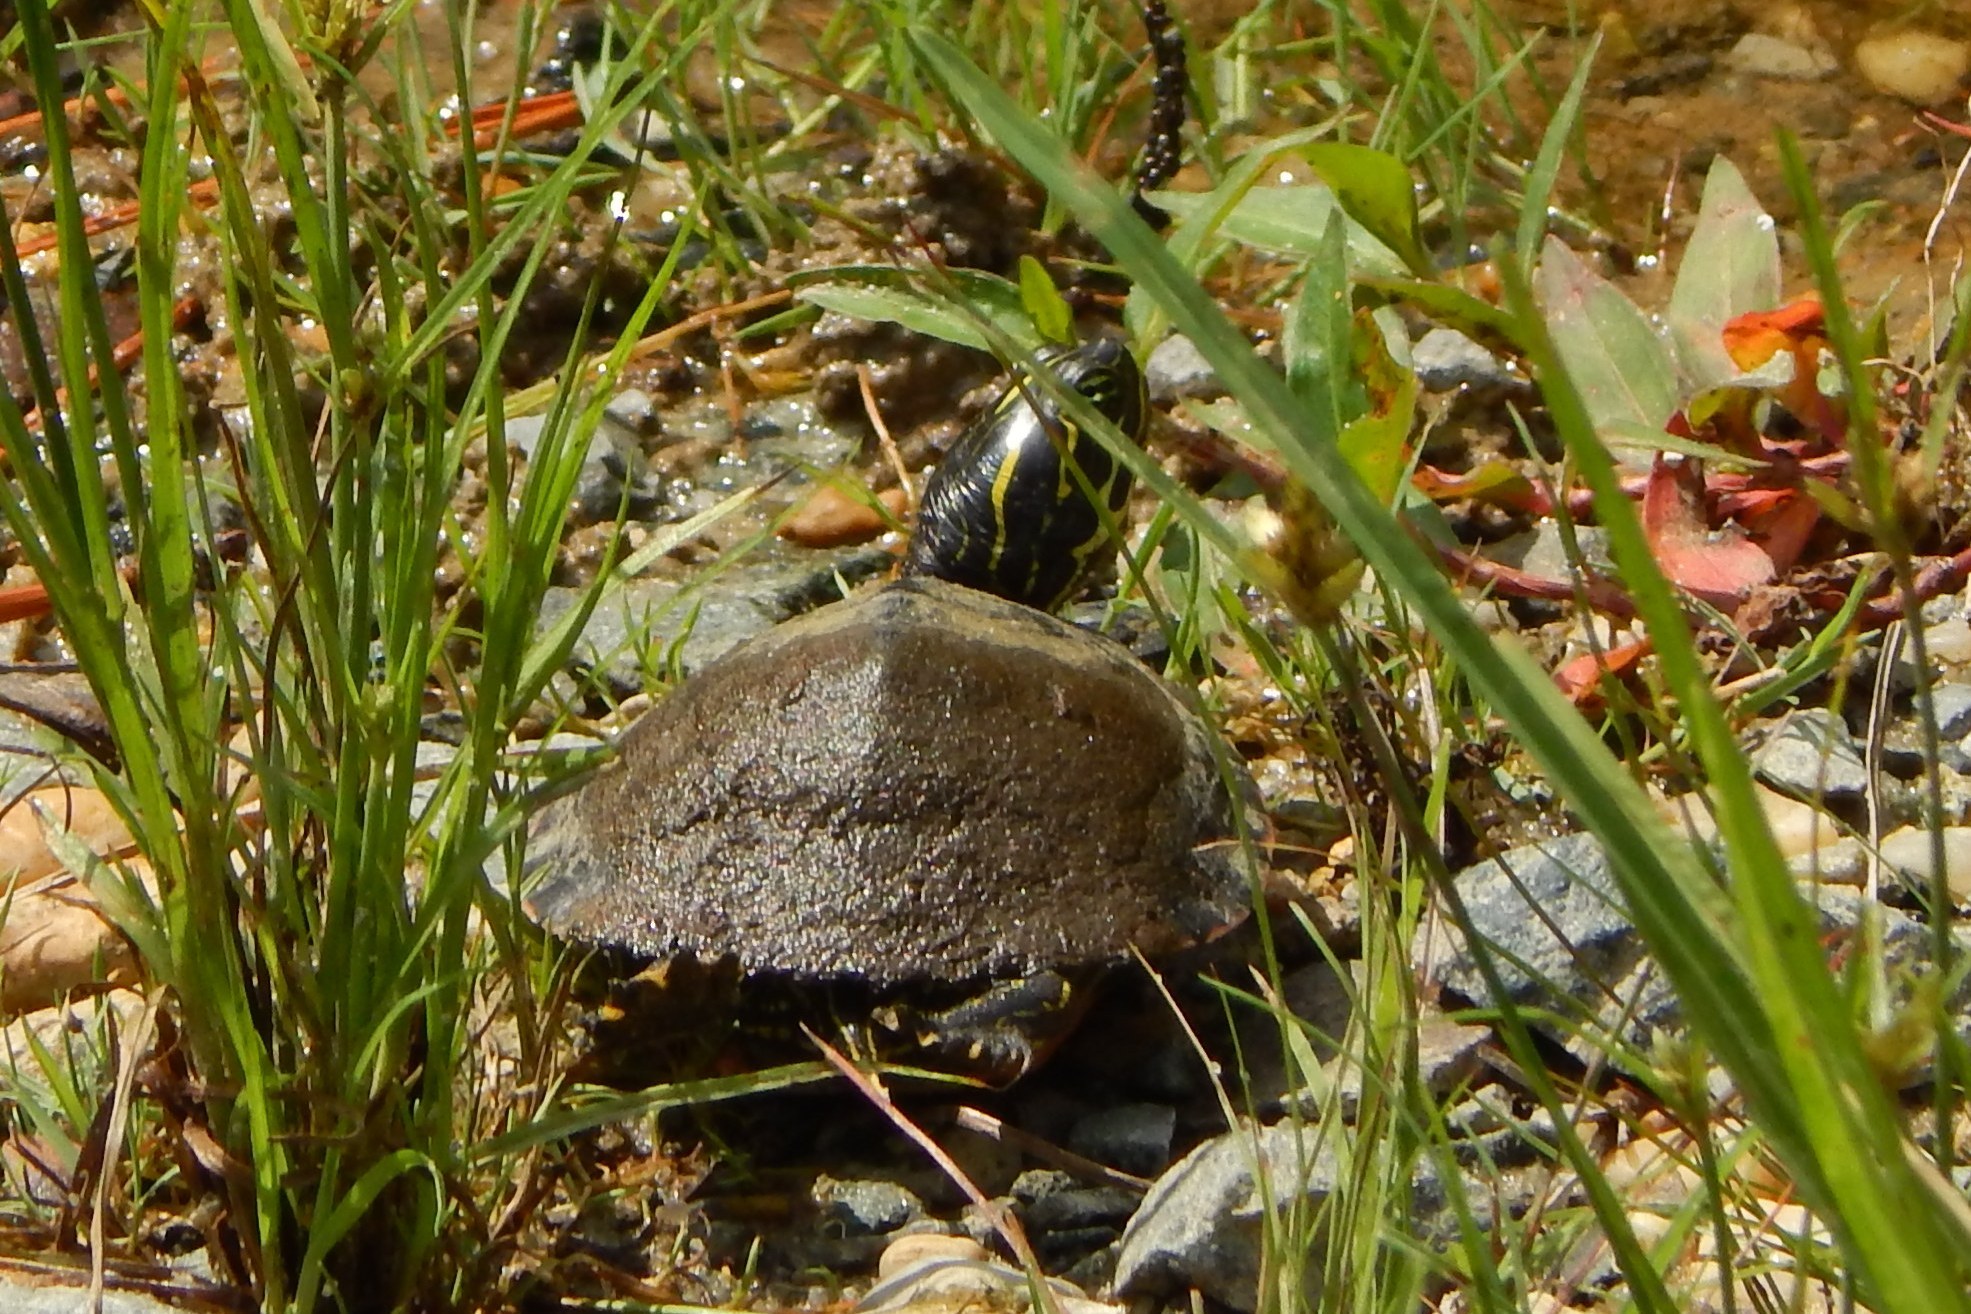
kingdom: Animalia
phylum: Chordata
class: Testudines
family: Emydidae
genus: Pseudemys
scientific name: Pseudemys rubriventris
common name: American red-bellied turtle
